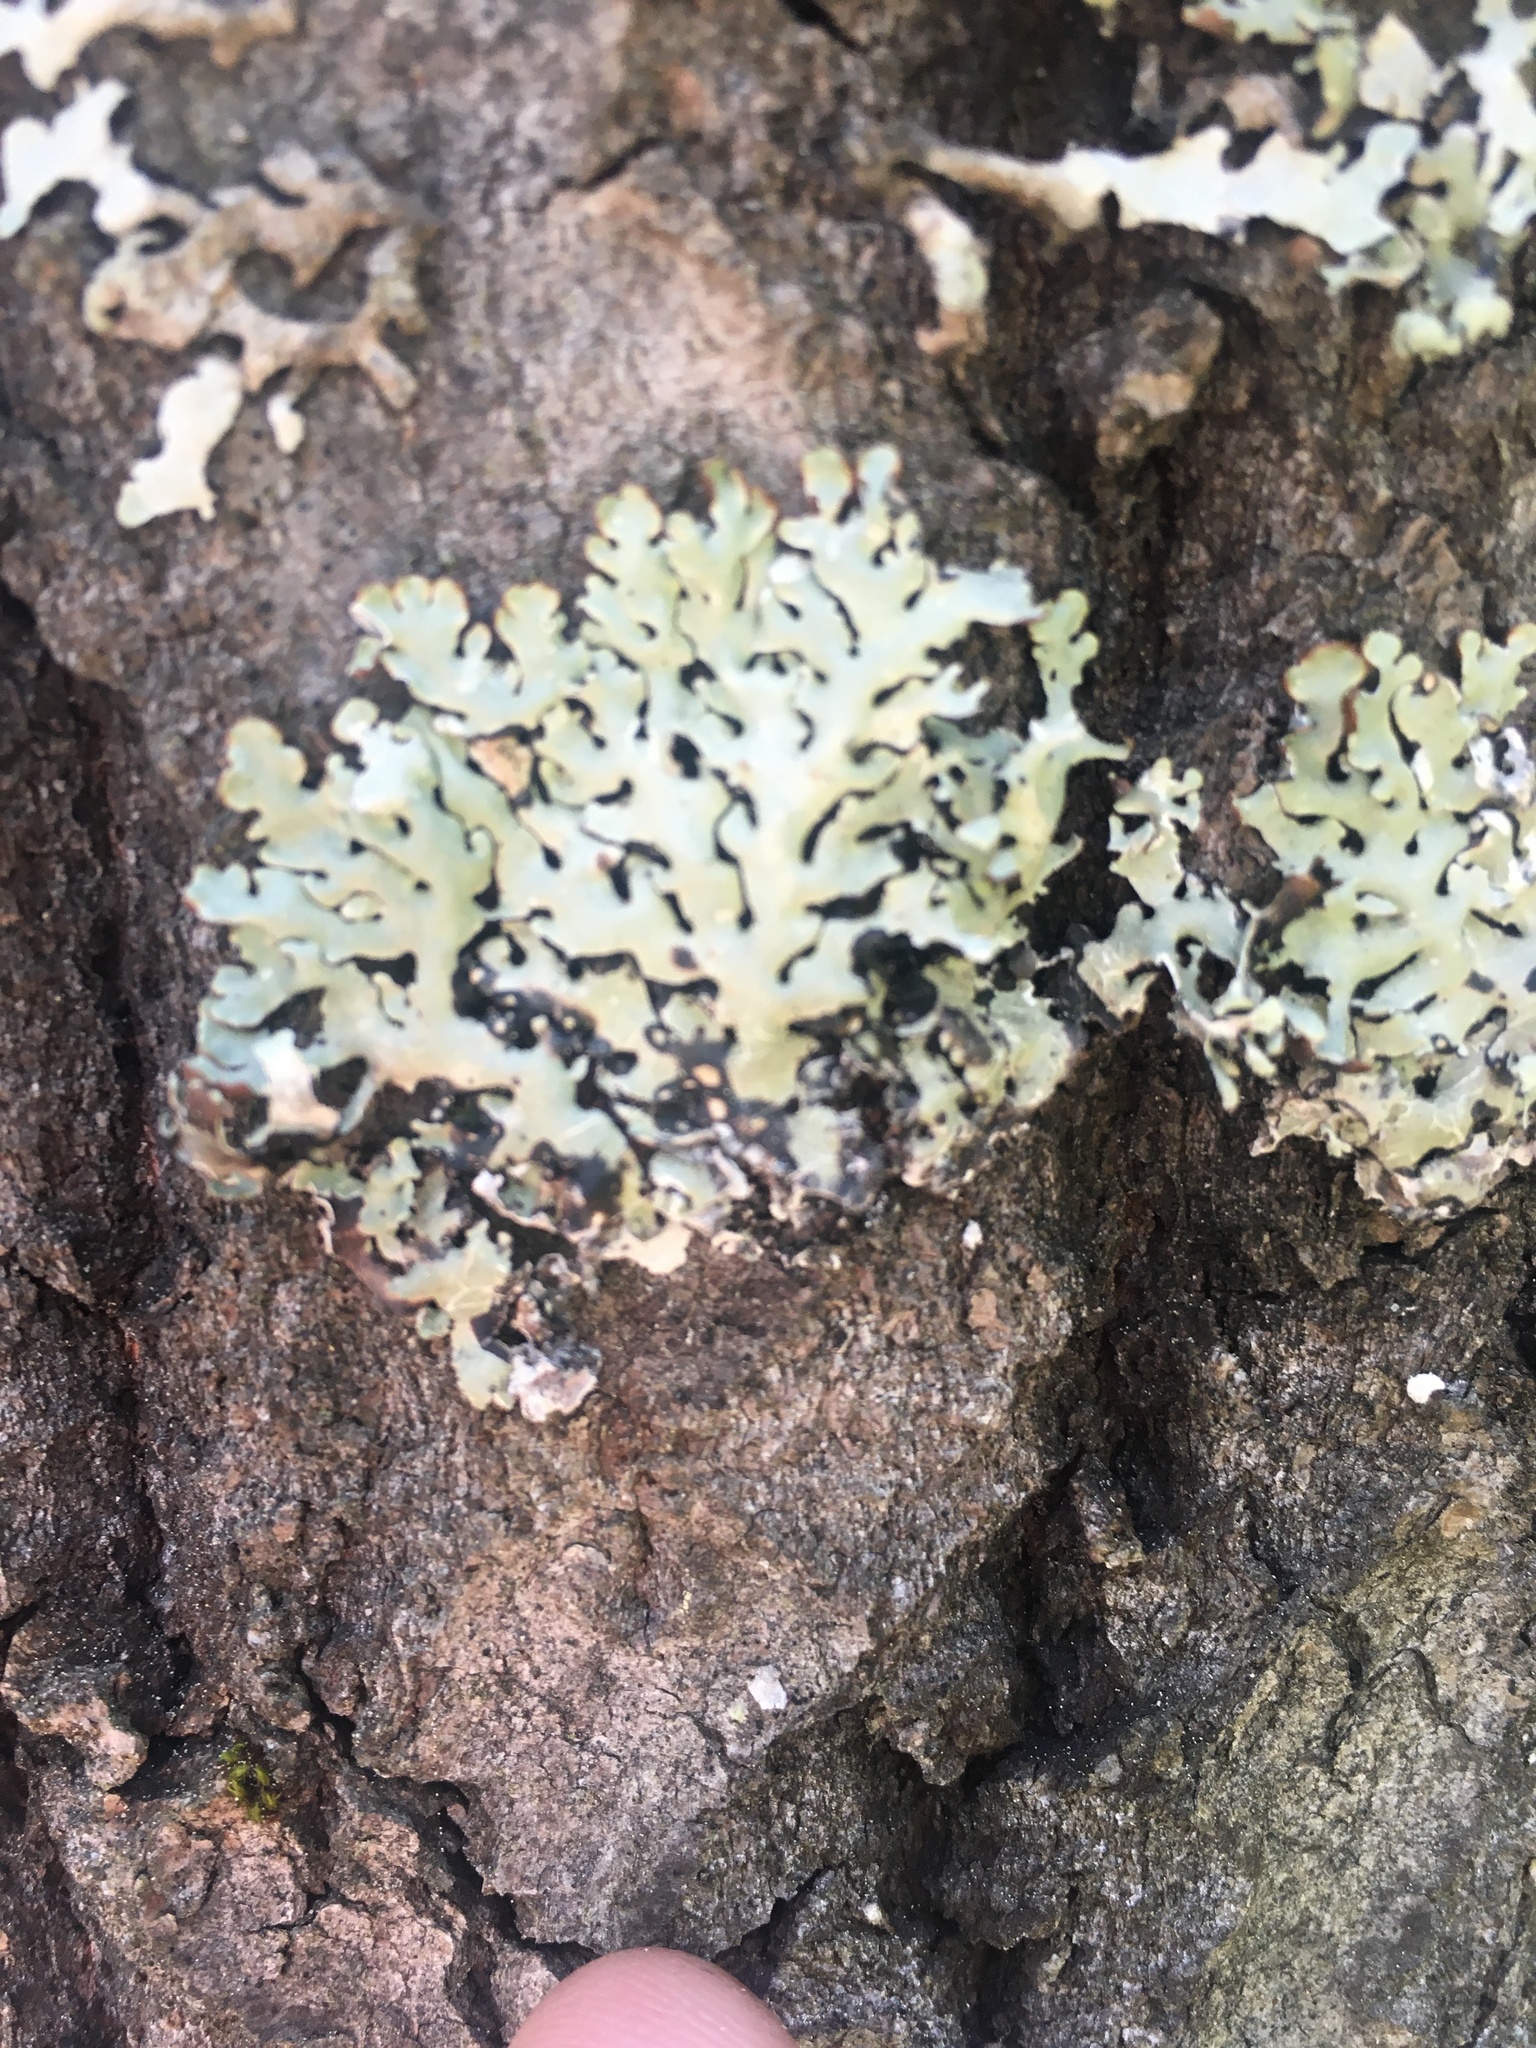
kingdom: Fungi
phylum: Ascomycota
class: Lecanoromycetes
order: Lecanorales
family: Parmeliaceae
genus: Hypogymnia
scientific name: Hypogymnia physodes
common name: Dark crottle
